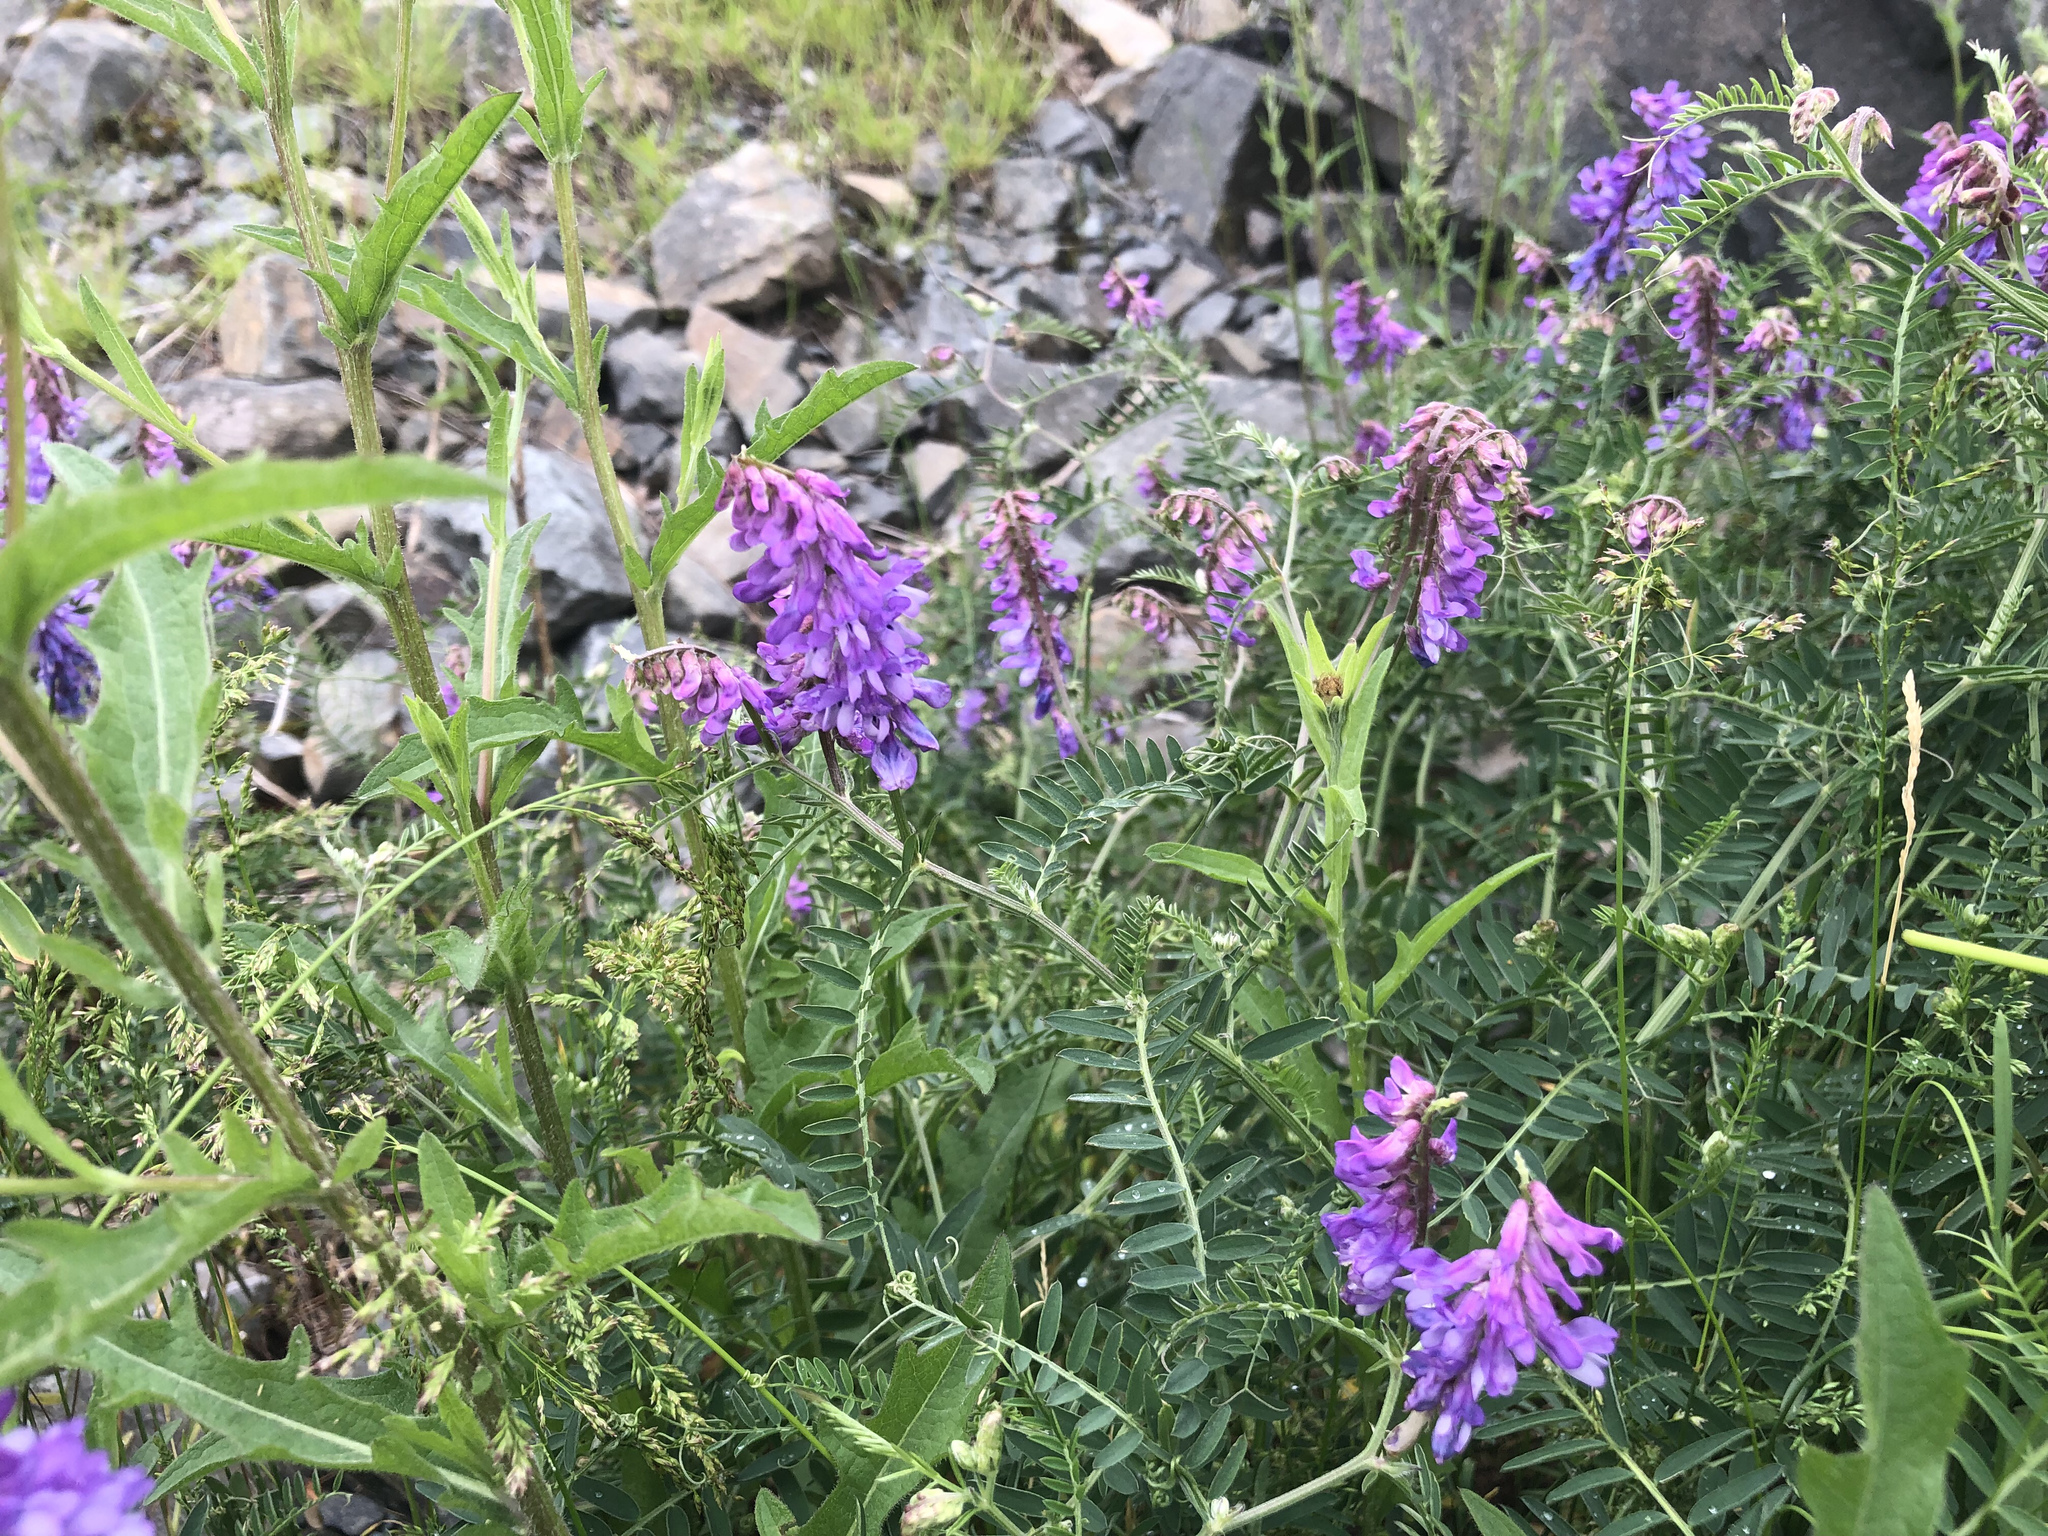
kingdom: Plantae
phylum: Tracheophyta
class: Magnoliopsida
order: Fabales
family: Fabaceae
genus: Vicia
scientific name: Vicia cracca
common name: Bird vetch
